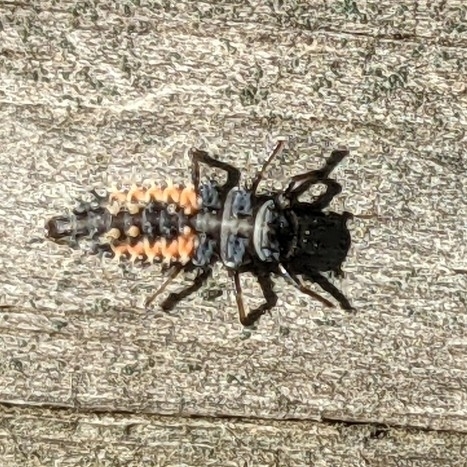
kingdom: Animalia
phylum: Arthropoda
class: Insecta
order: Coleoptera
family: Coccinellidae
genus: Harmonia
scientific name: Harmonia axyridis
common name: Harlequin ladybird
